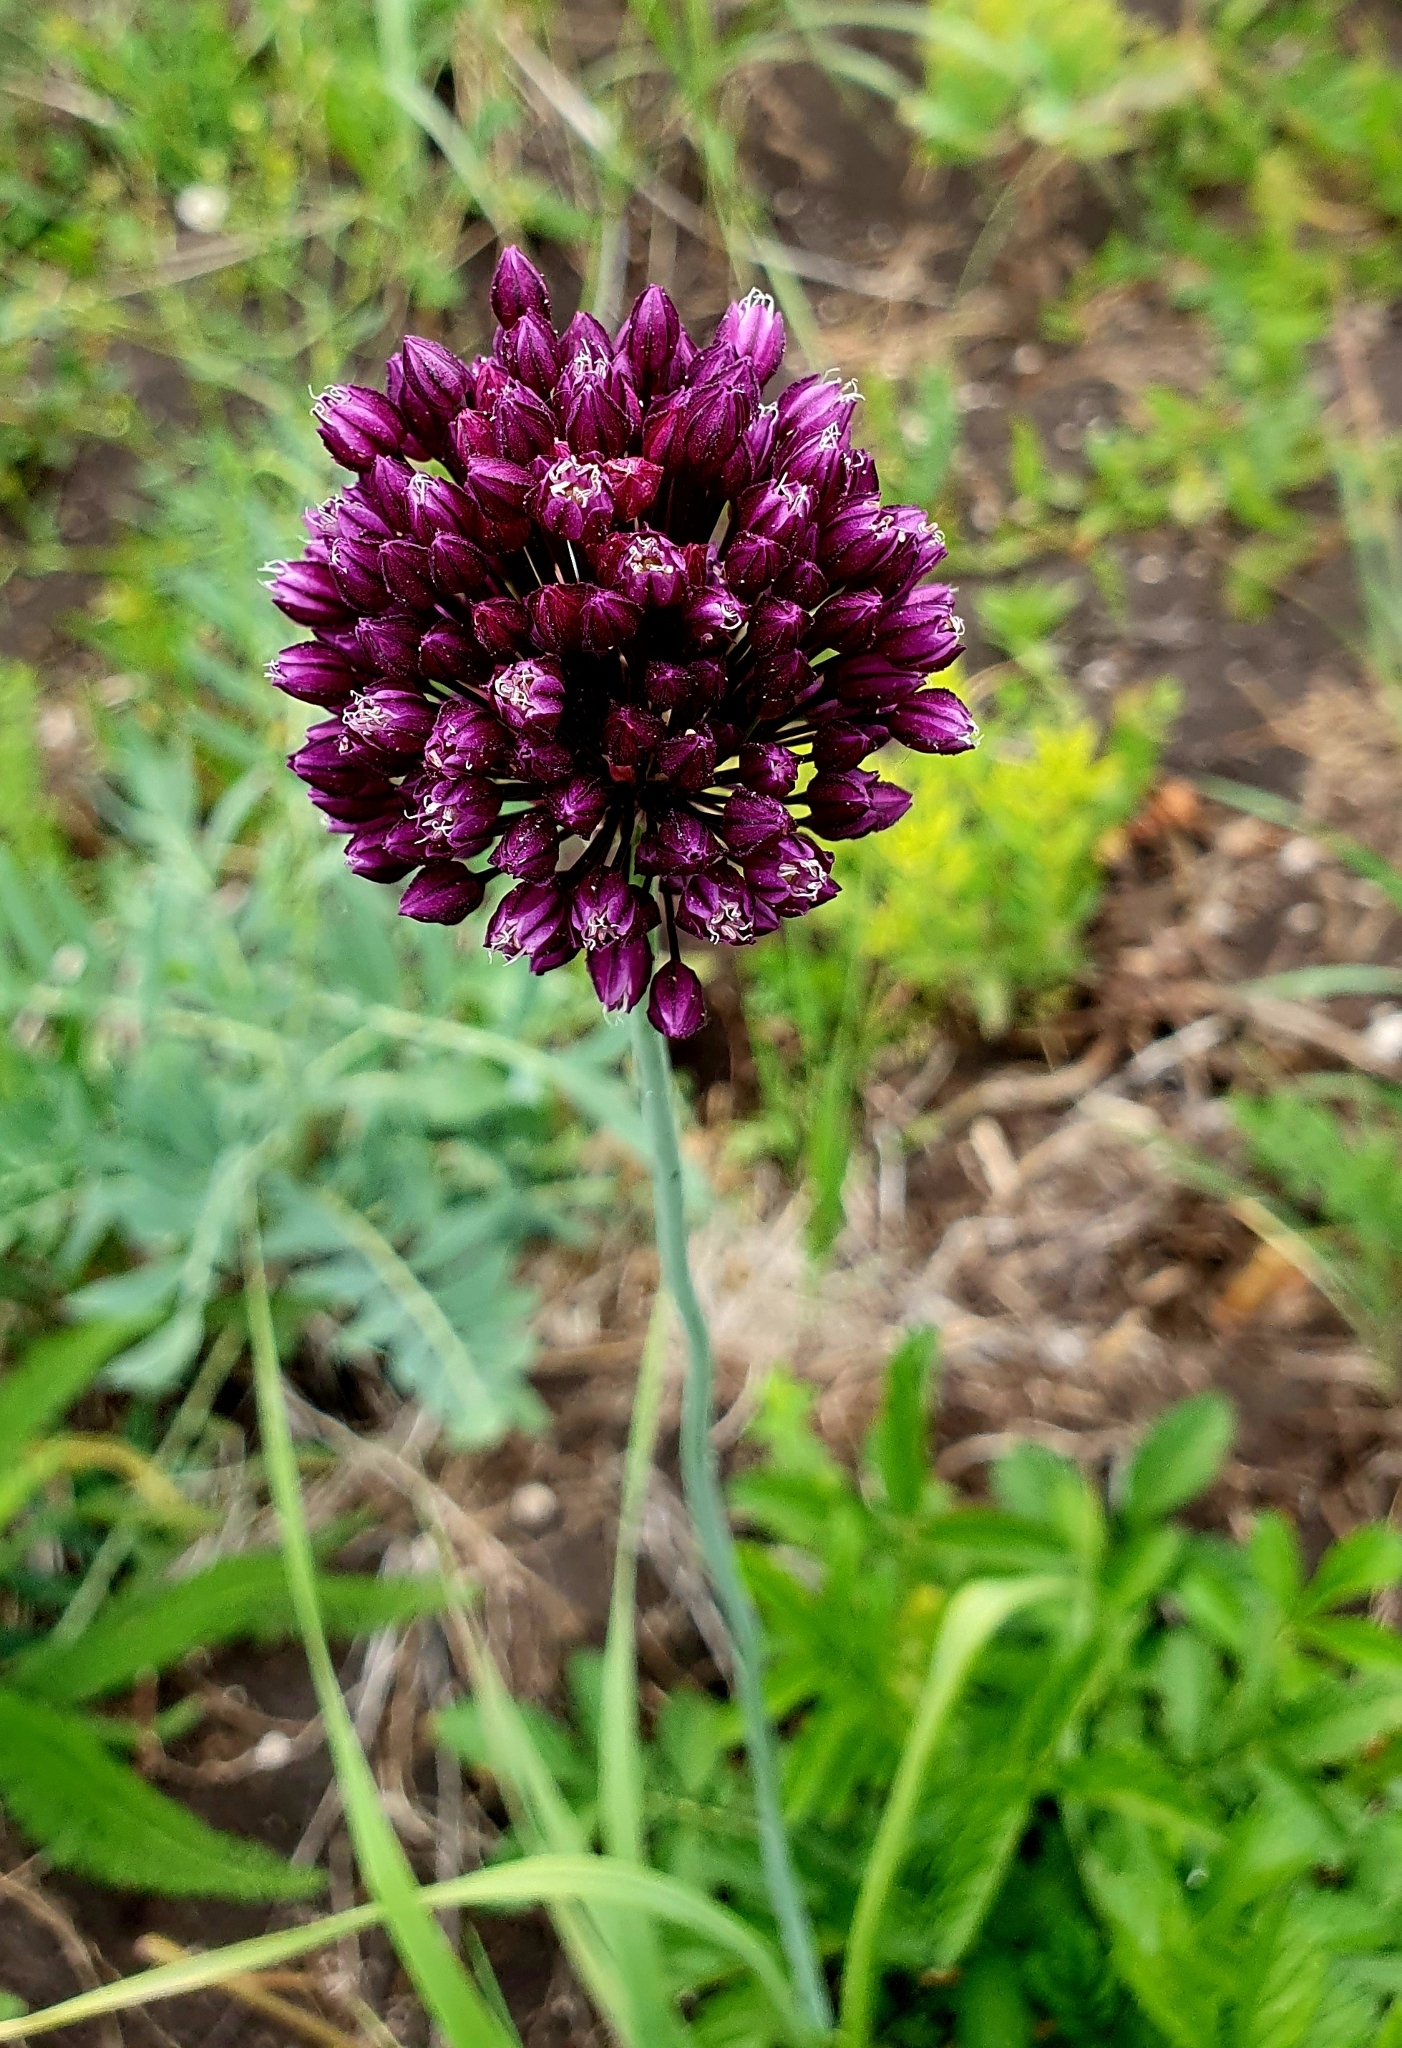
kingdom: Plantae
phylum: Tracheophyta
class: Liliopsida
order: Asparagales
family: Amaryllidaceae
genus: Allium
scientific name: Allium rotundum
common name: Sand leek
